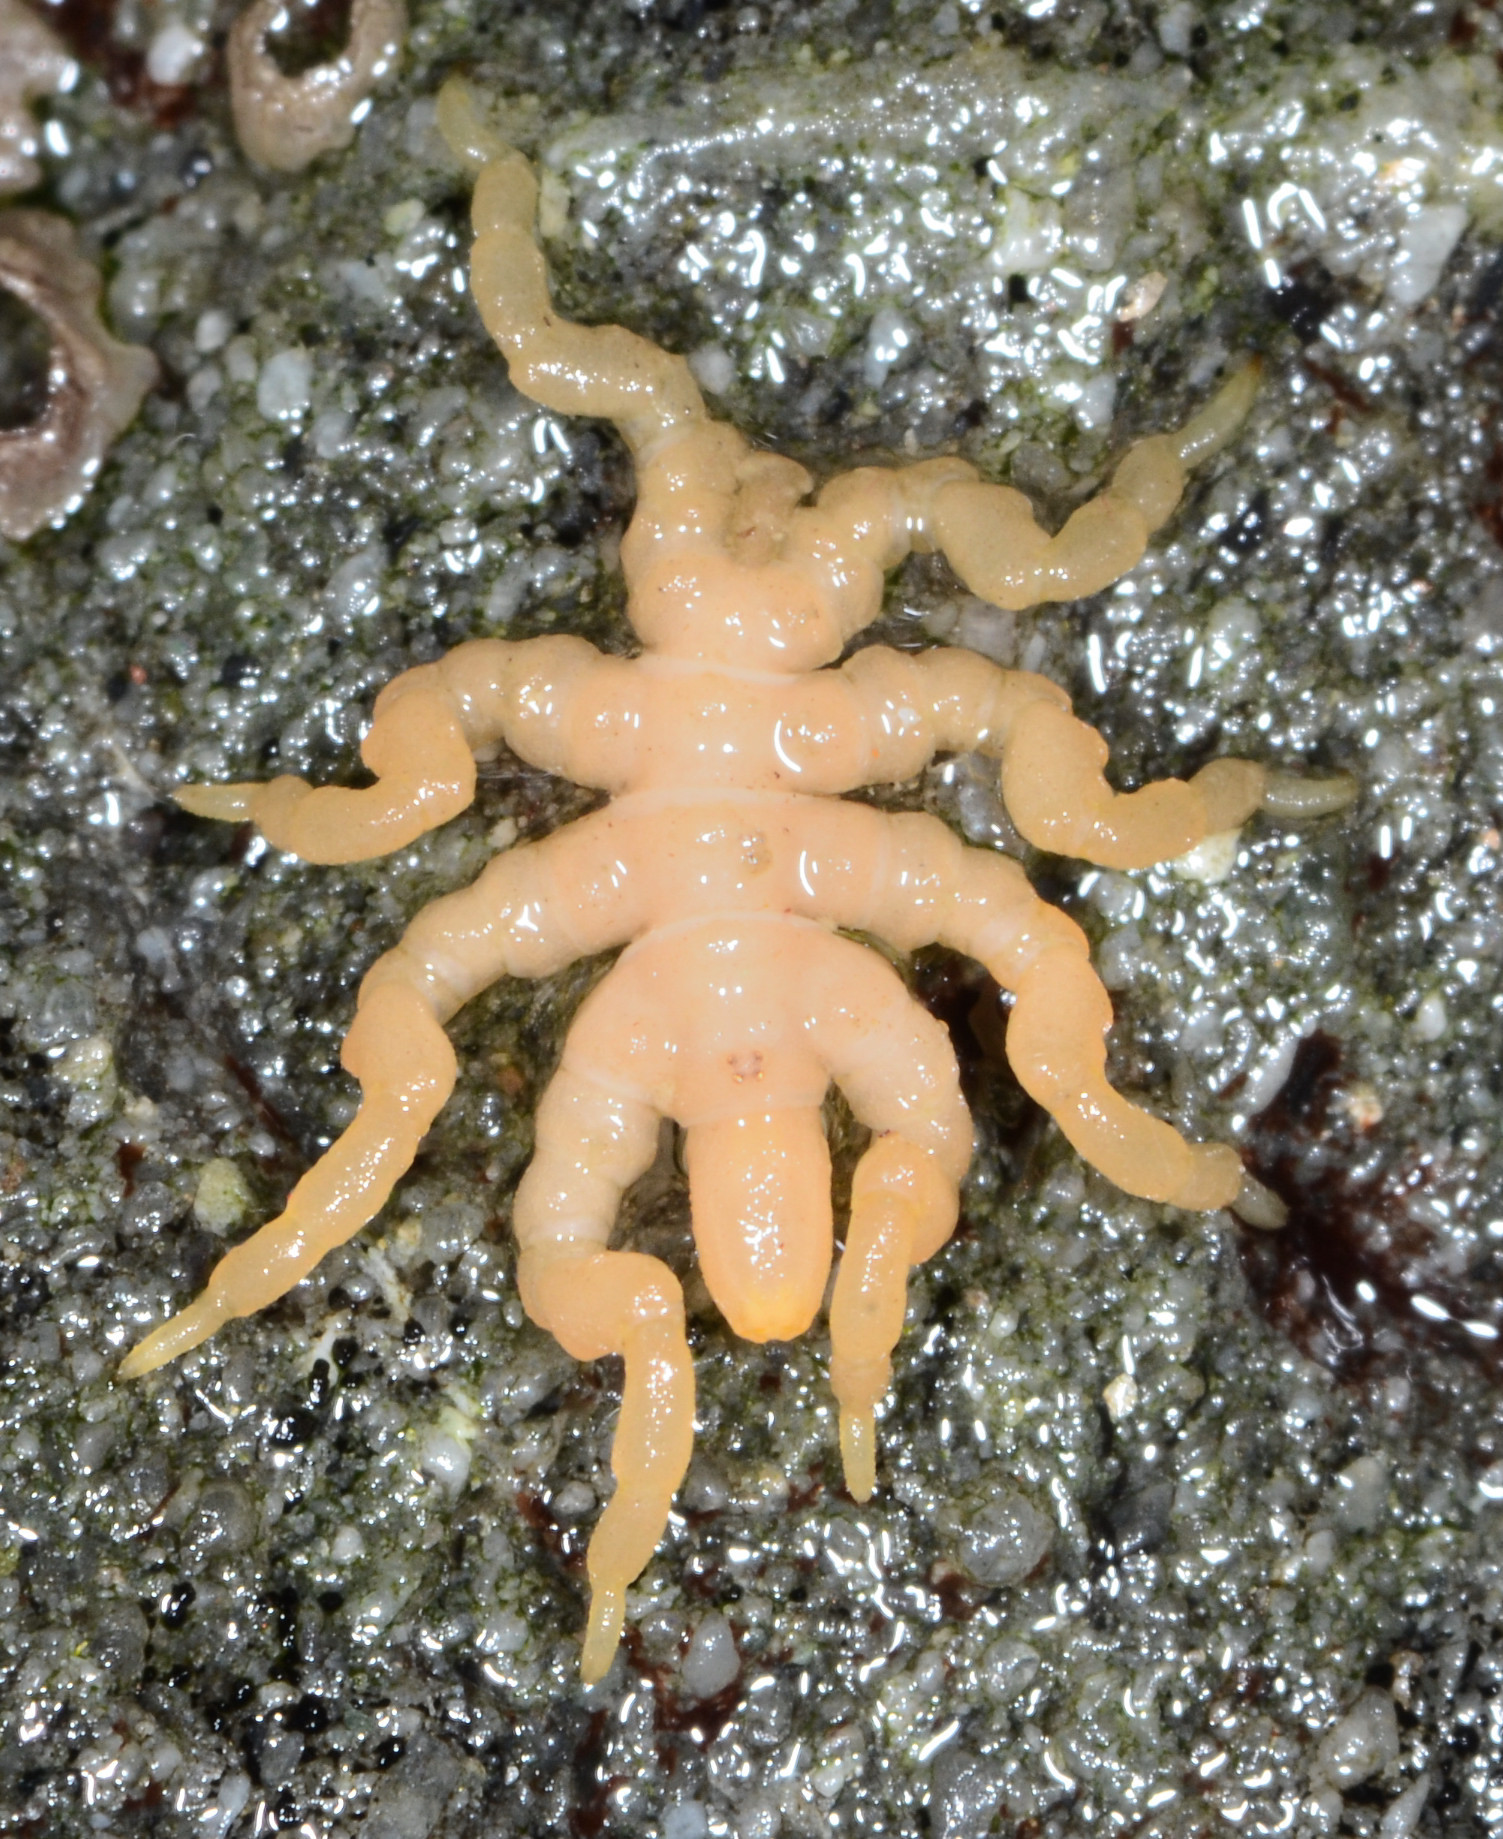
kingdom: Animalia
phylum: Arthropoda
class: Pycnogonida
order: Pantopoda
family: Pycnogonidae
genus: Pycnogonum
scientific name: Pycnogonum stearnsi
